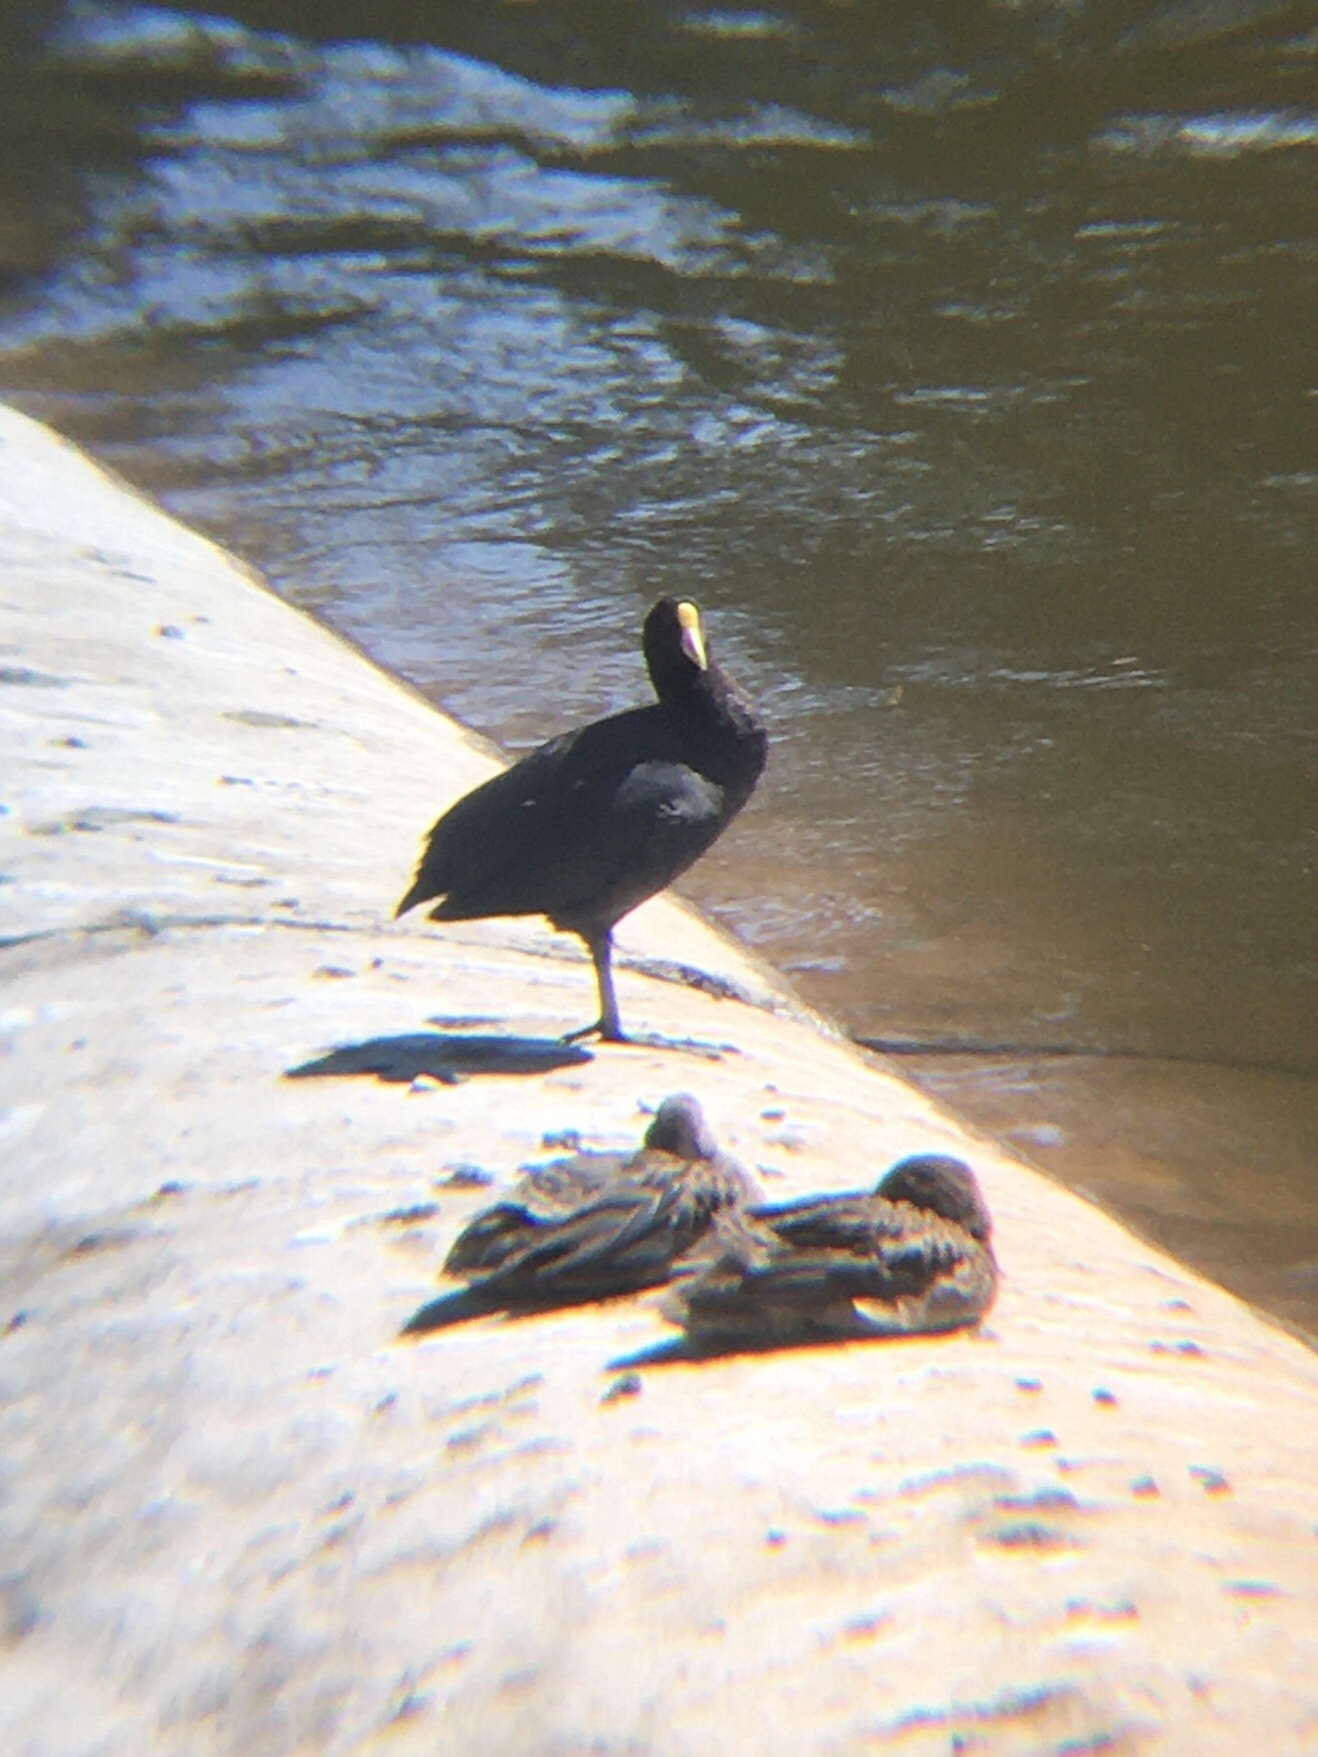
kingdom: Animalia
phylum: Chordata
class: Aves
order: Gruiformes
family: Rallidae
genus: Fulica
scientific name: Fulica leucoptera
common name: White-winged coot
